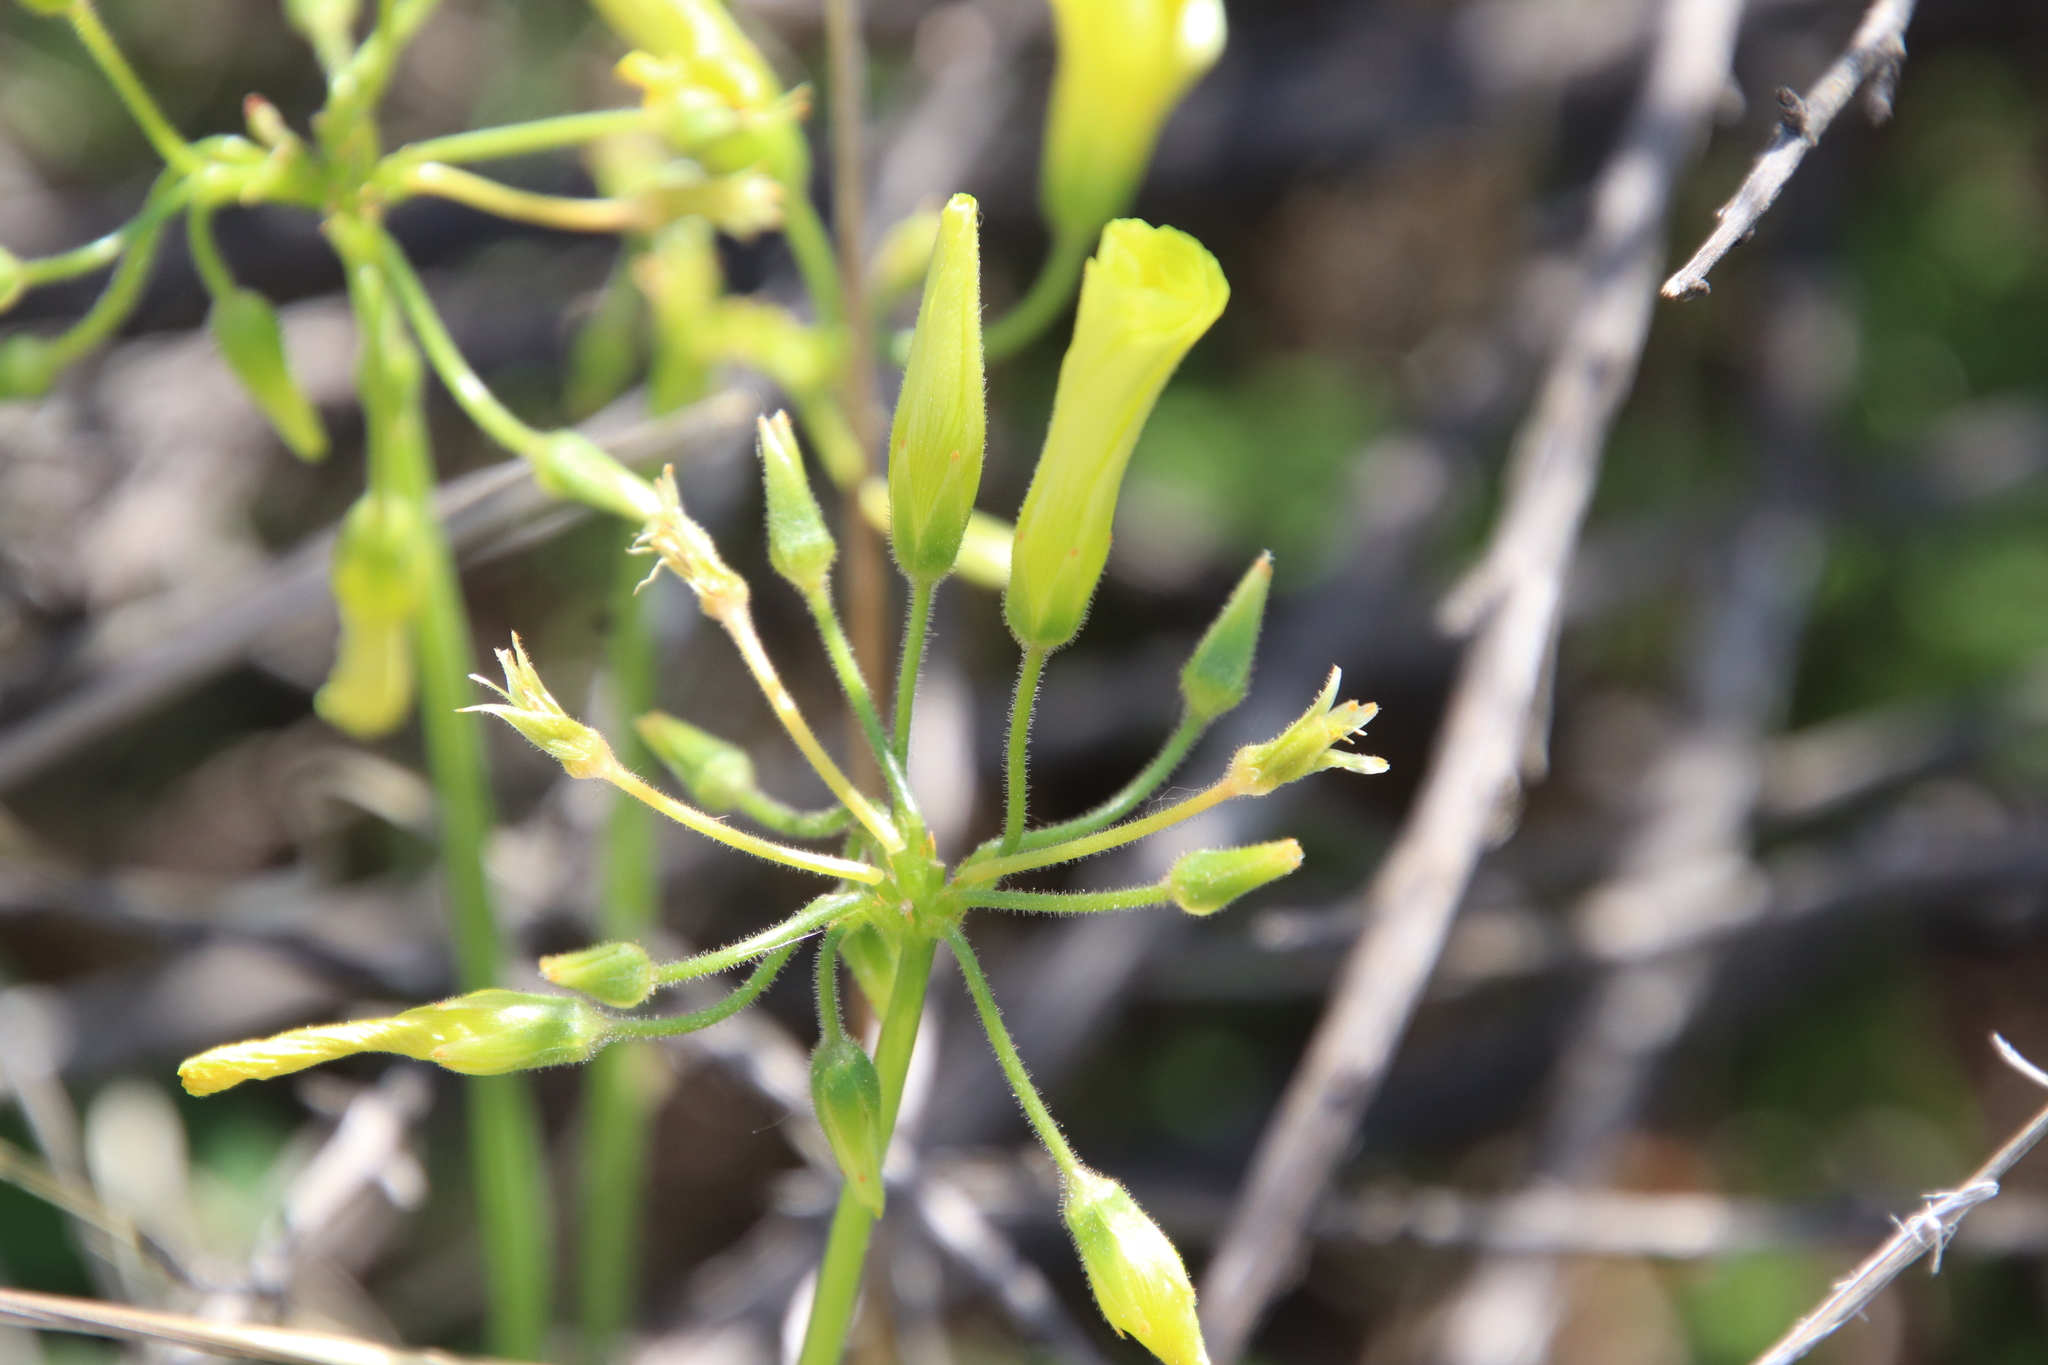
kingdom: Plantae
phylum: Tracheophyta
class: Magnoliopsida
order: Oxalidales
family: Oxalidaceae
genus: Oxalis
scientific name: Oxalis pes-caprae
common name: Bermuda-buttercup
